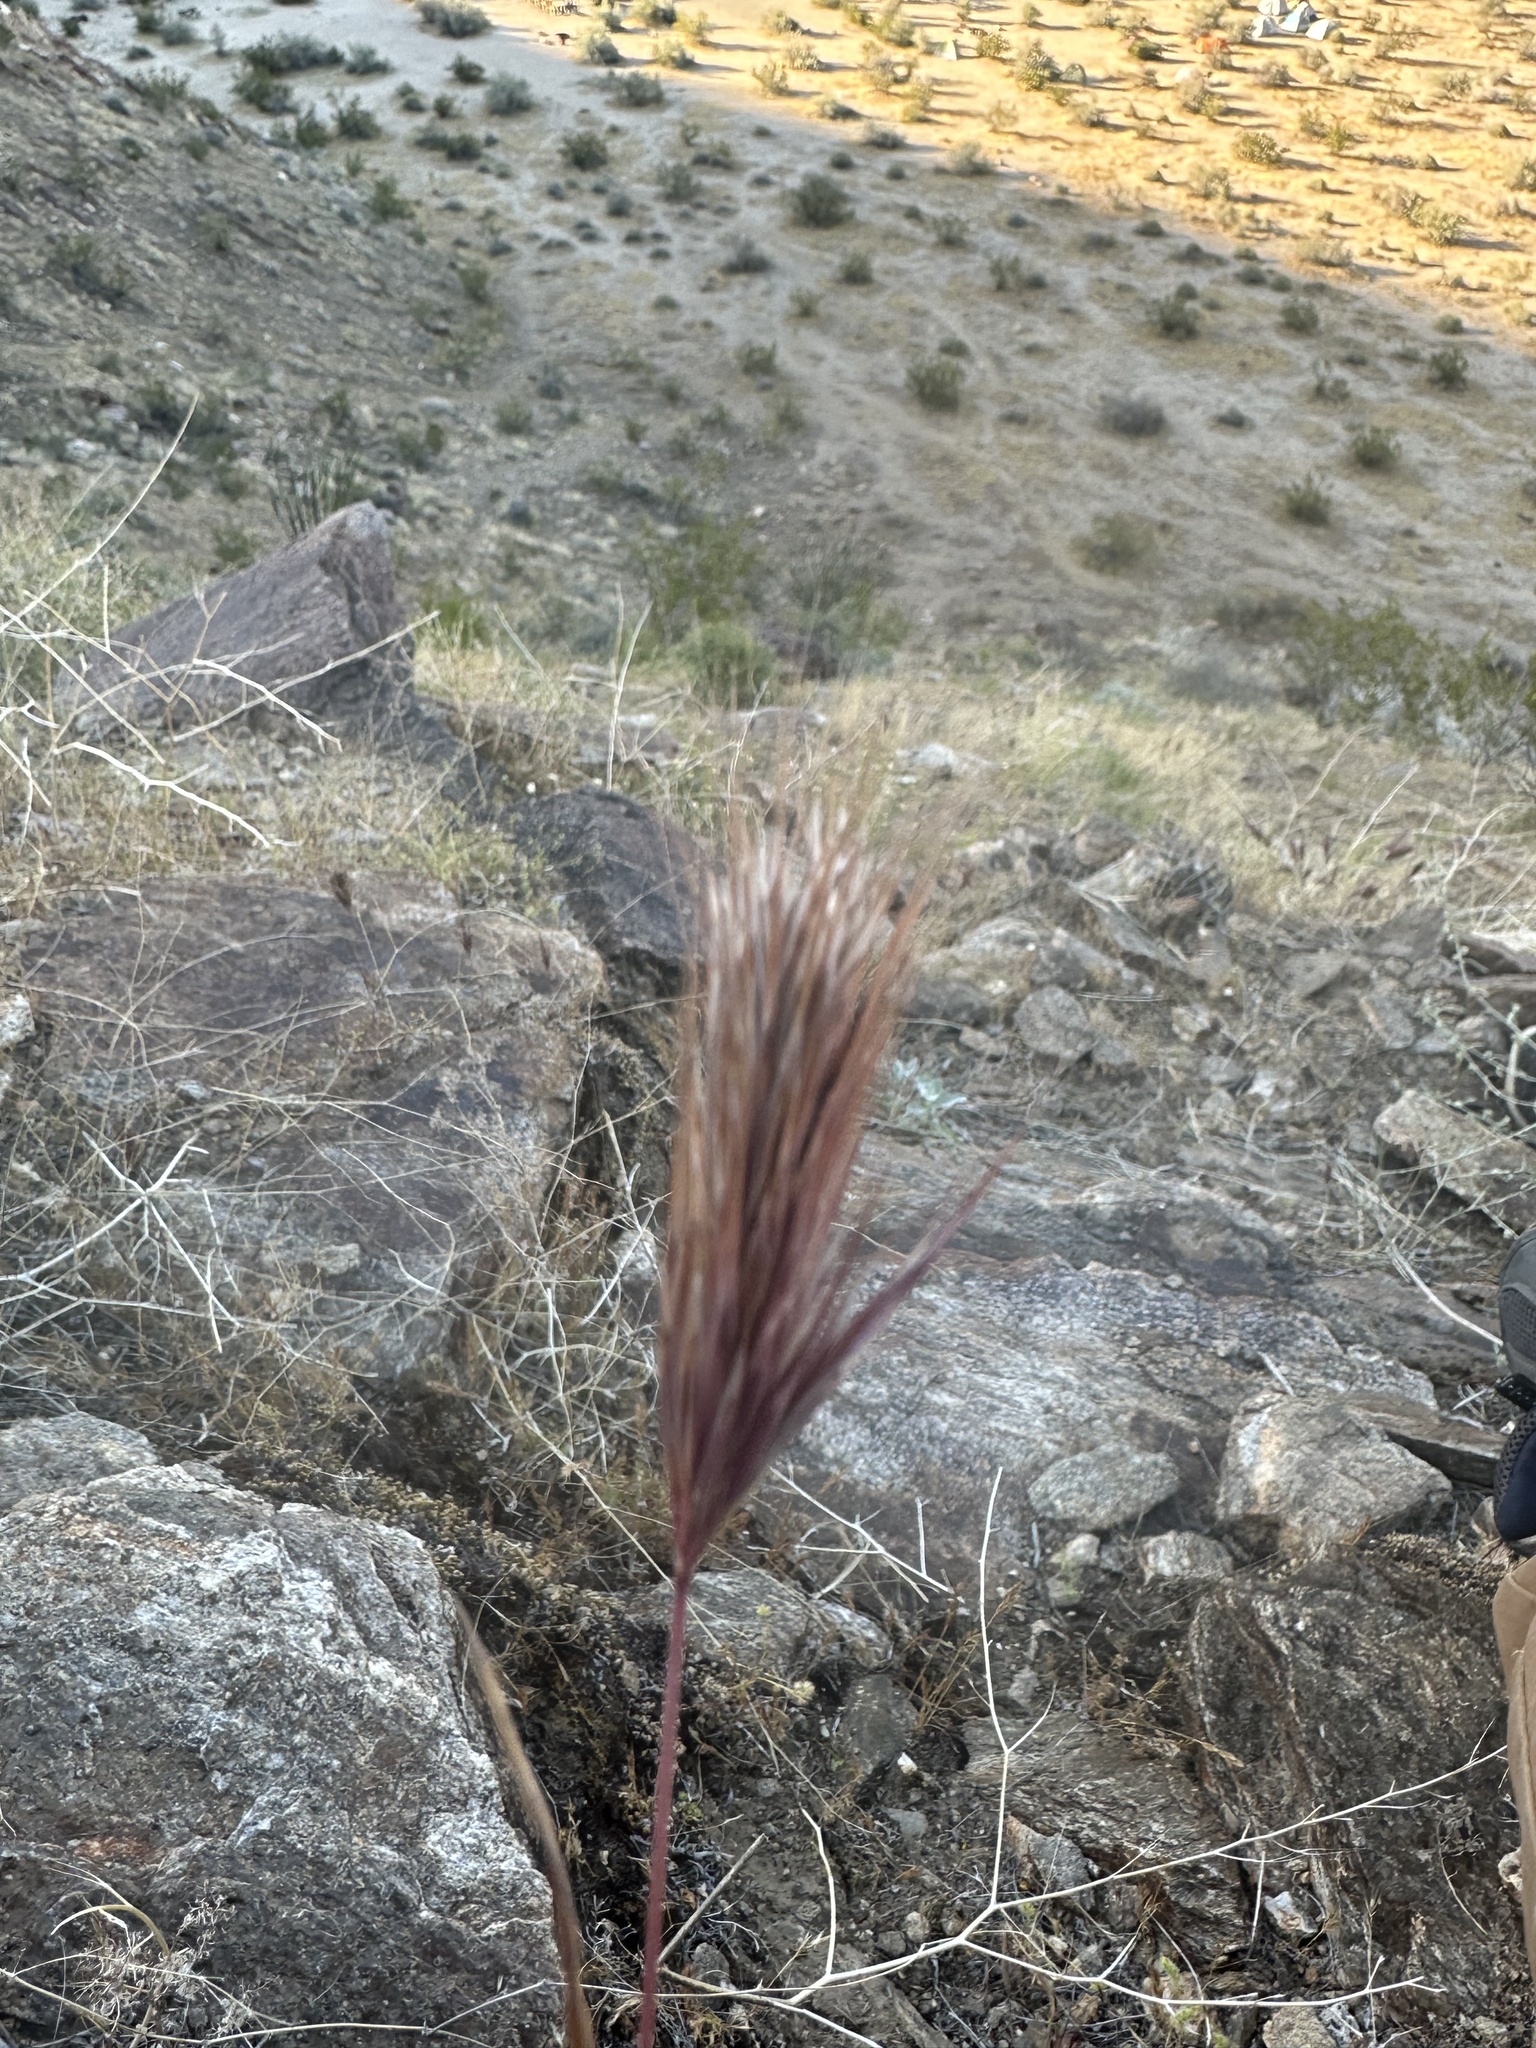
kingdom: Plantae
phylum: Tracheophyta
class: Liliopsida
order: Poales
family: Poaceae
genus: Bromus
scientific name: Bromus rubens
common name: Red brome
